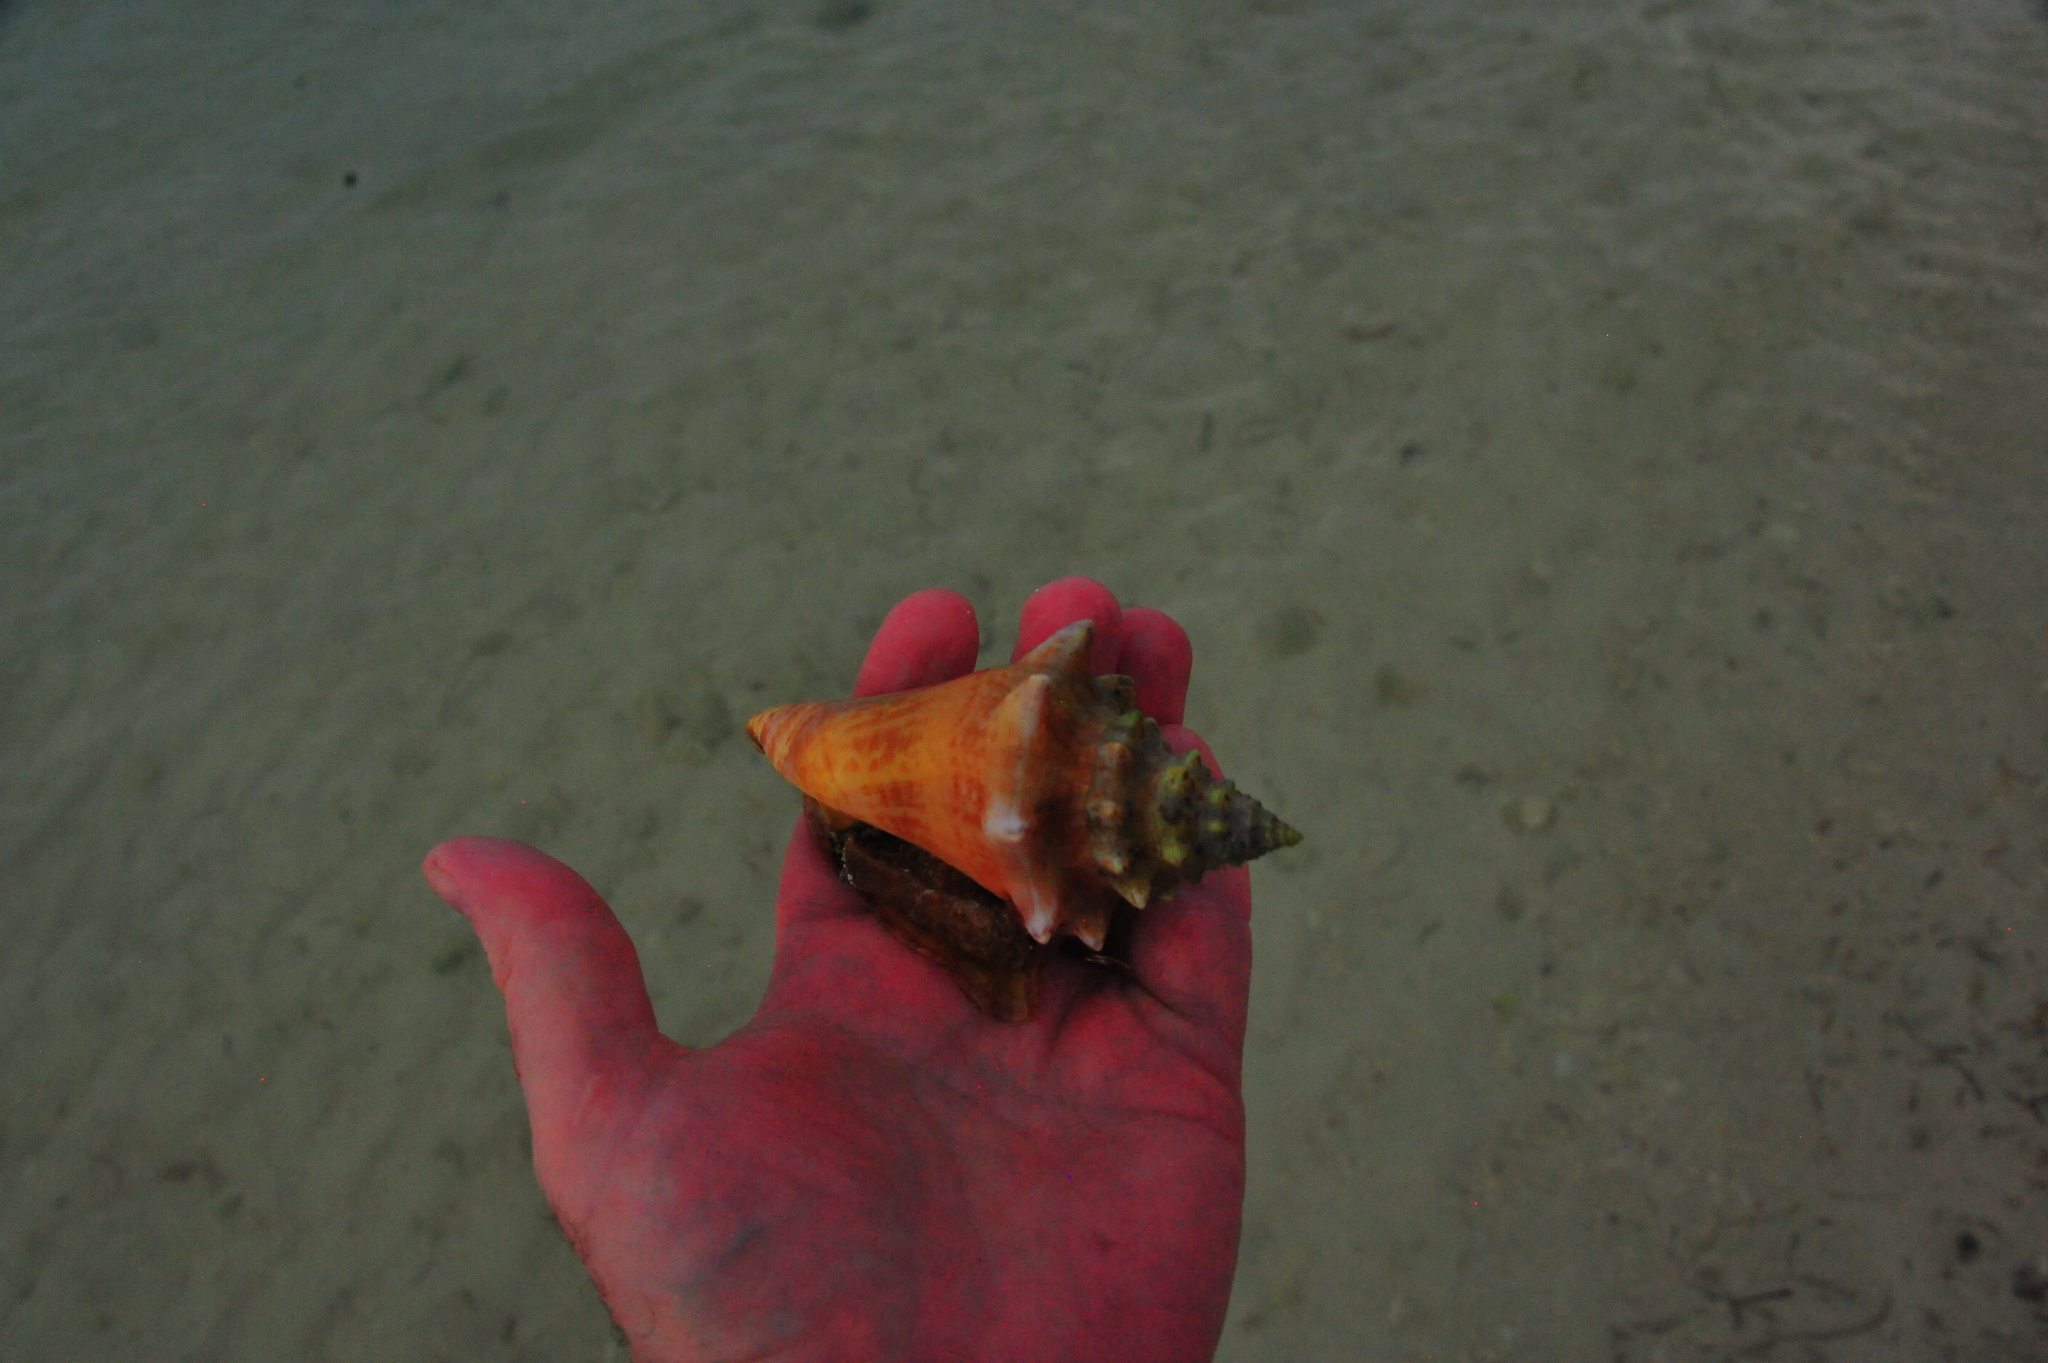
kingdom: Animalia
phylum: Mollusca
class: Gastropoda
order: Littorinimorpha
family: Strombidae
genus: Aliger
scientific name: Aliger gigas
